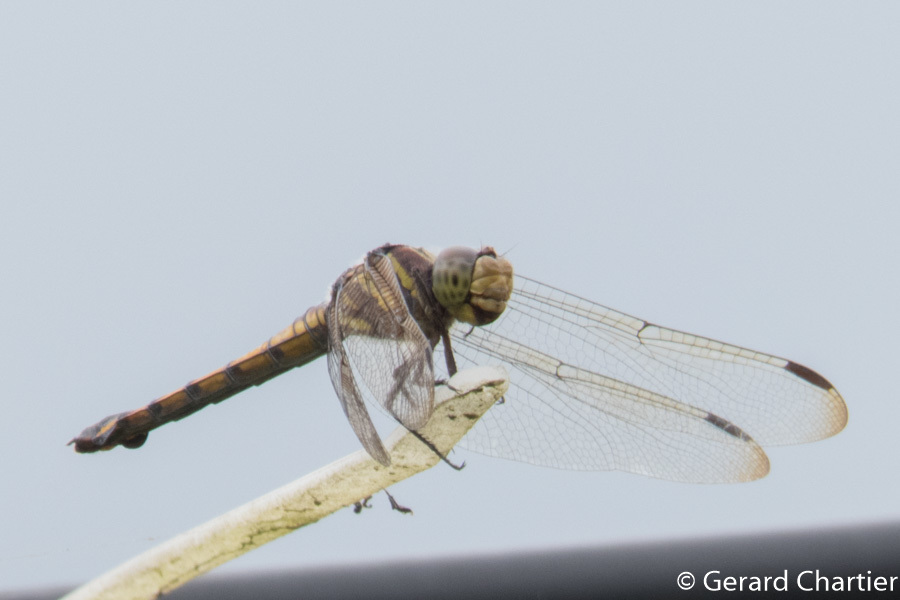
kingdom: Animalia
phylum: Arthropoda
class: Insecta
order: Odonata
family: Libellulidae
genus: Potamarcha
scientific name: Potamarcha congener
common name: Blue chaser
